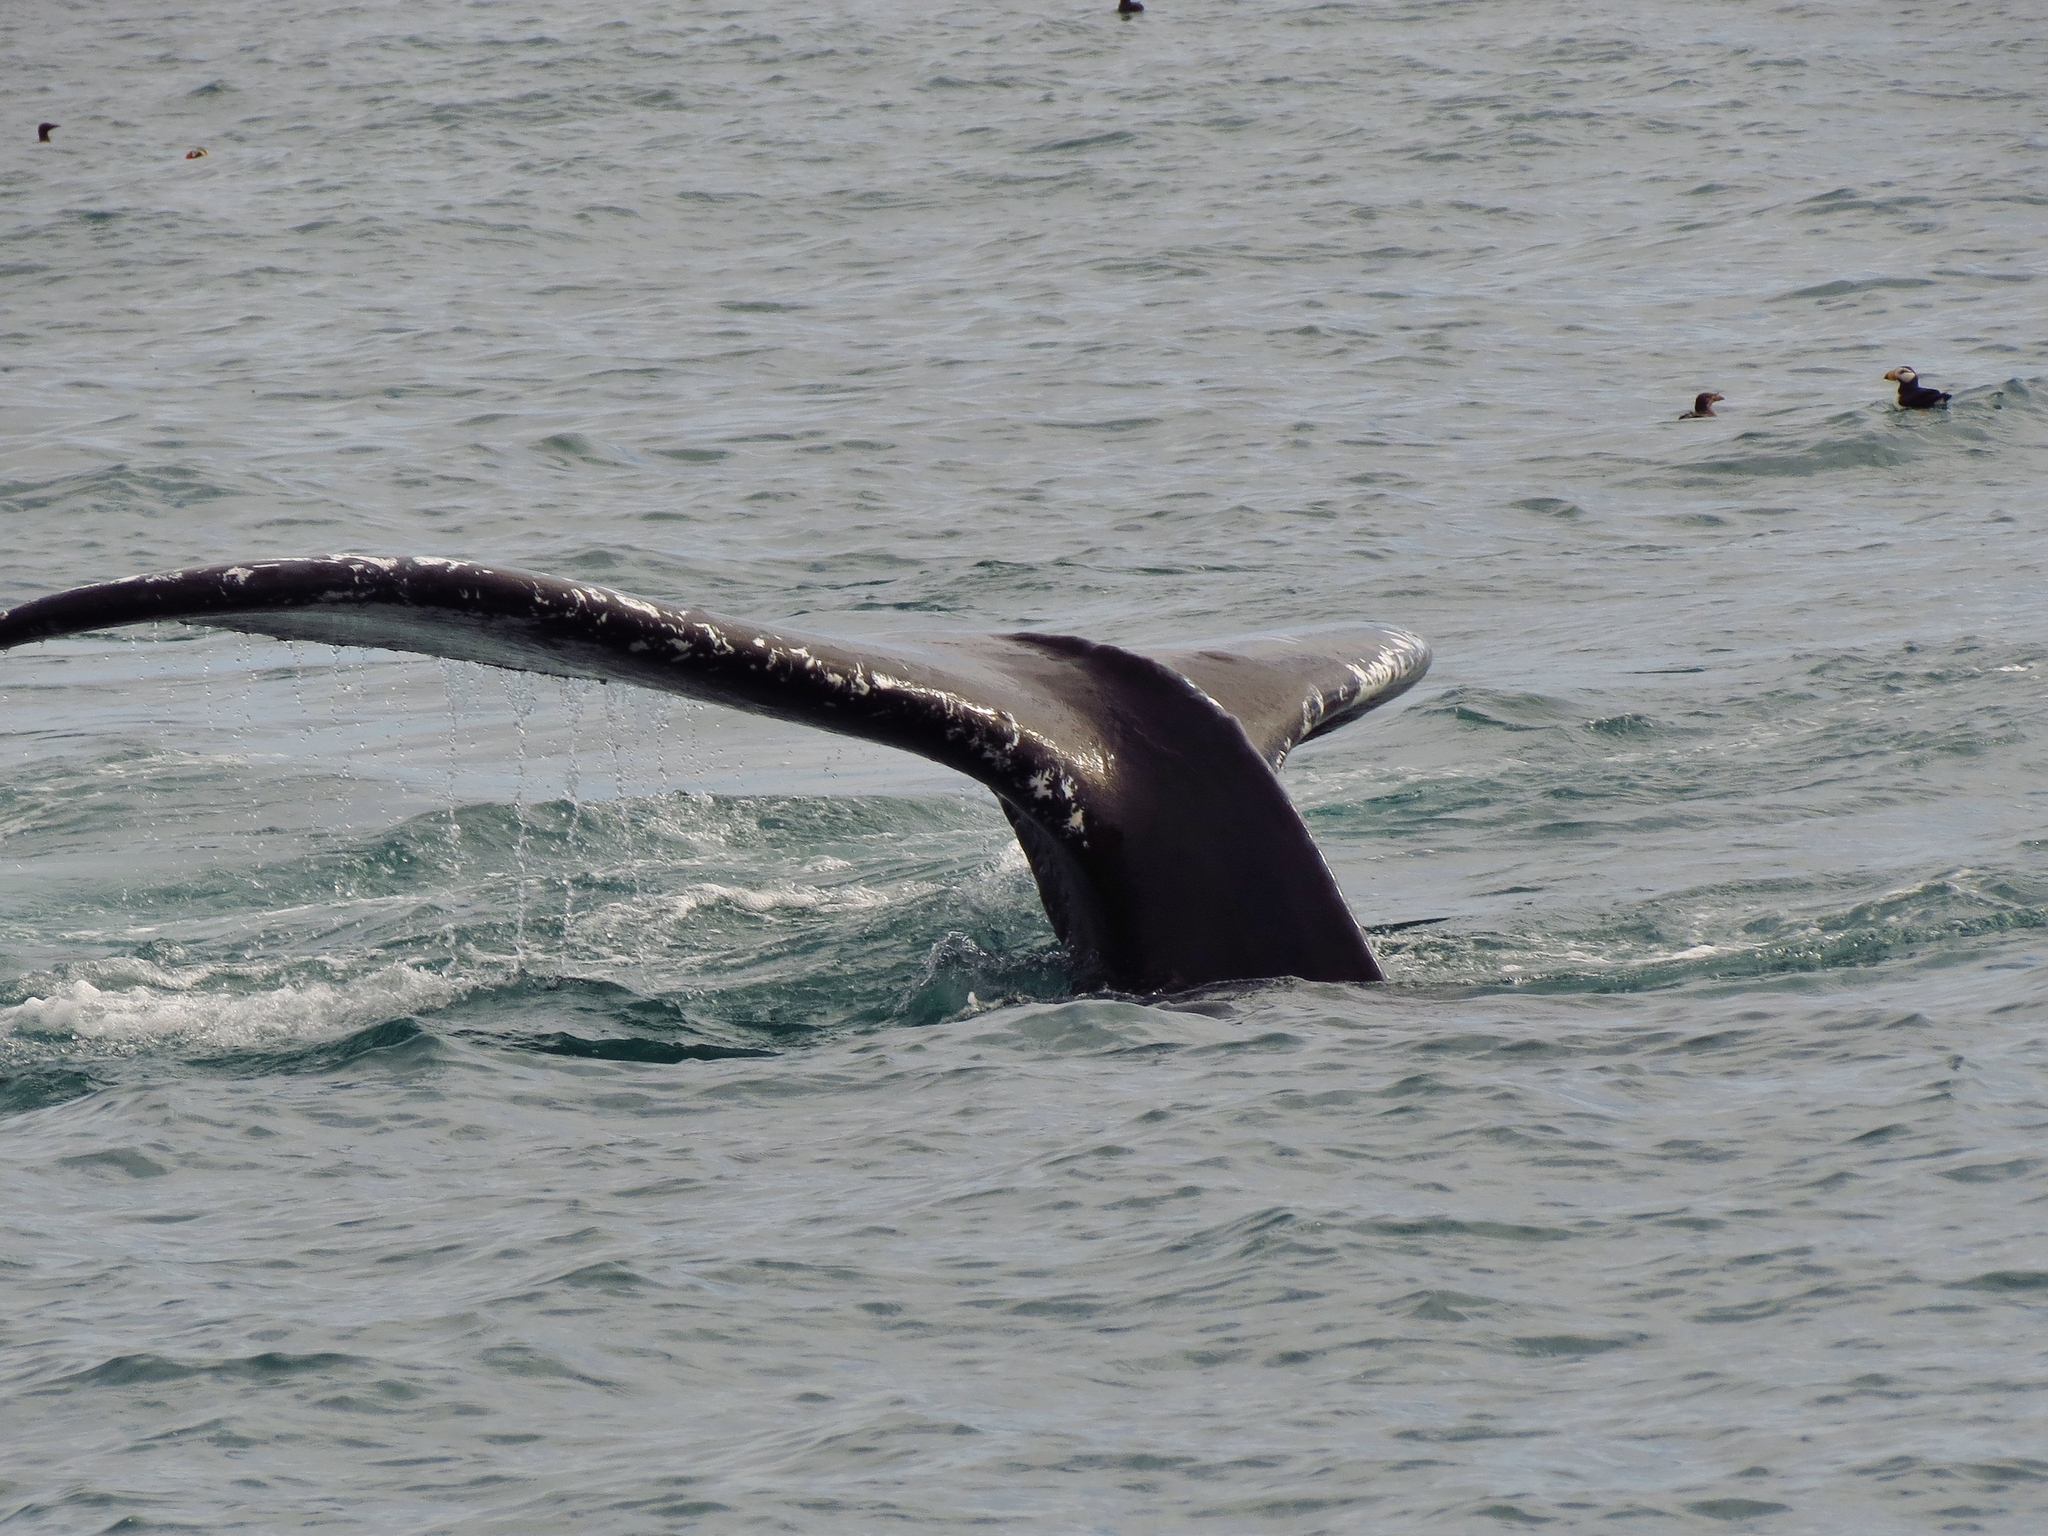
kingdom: Animalia
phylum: Chordata
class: Mammalia
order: Cetacea
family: Balaenopteridae
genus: Megaptera
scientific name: Megaptera novaeangliae
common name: Humpback whale
